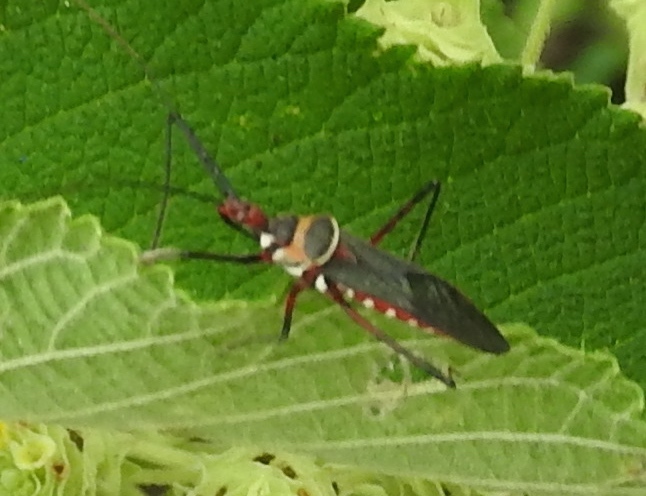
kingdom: Animalia
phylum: Arthropoda
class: Insecta
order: Hemiptera
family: Reduviidae
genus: Zelus
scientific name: Zelus grassans
